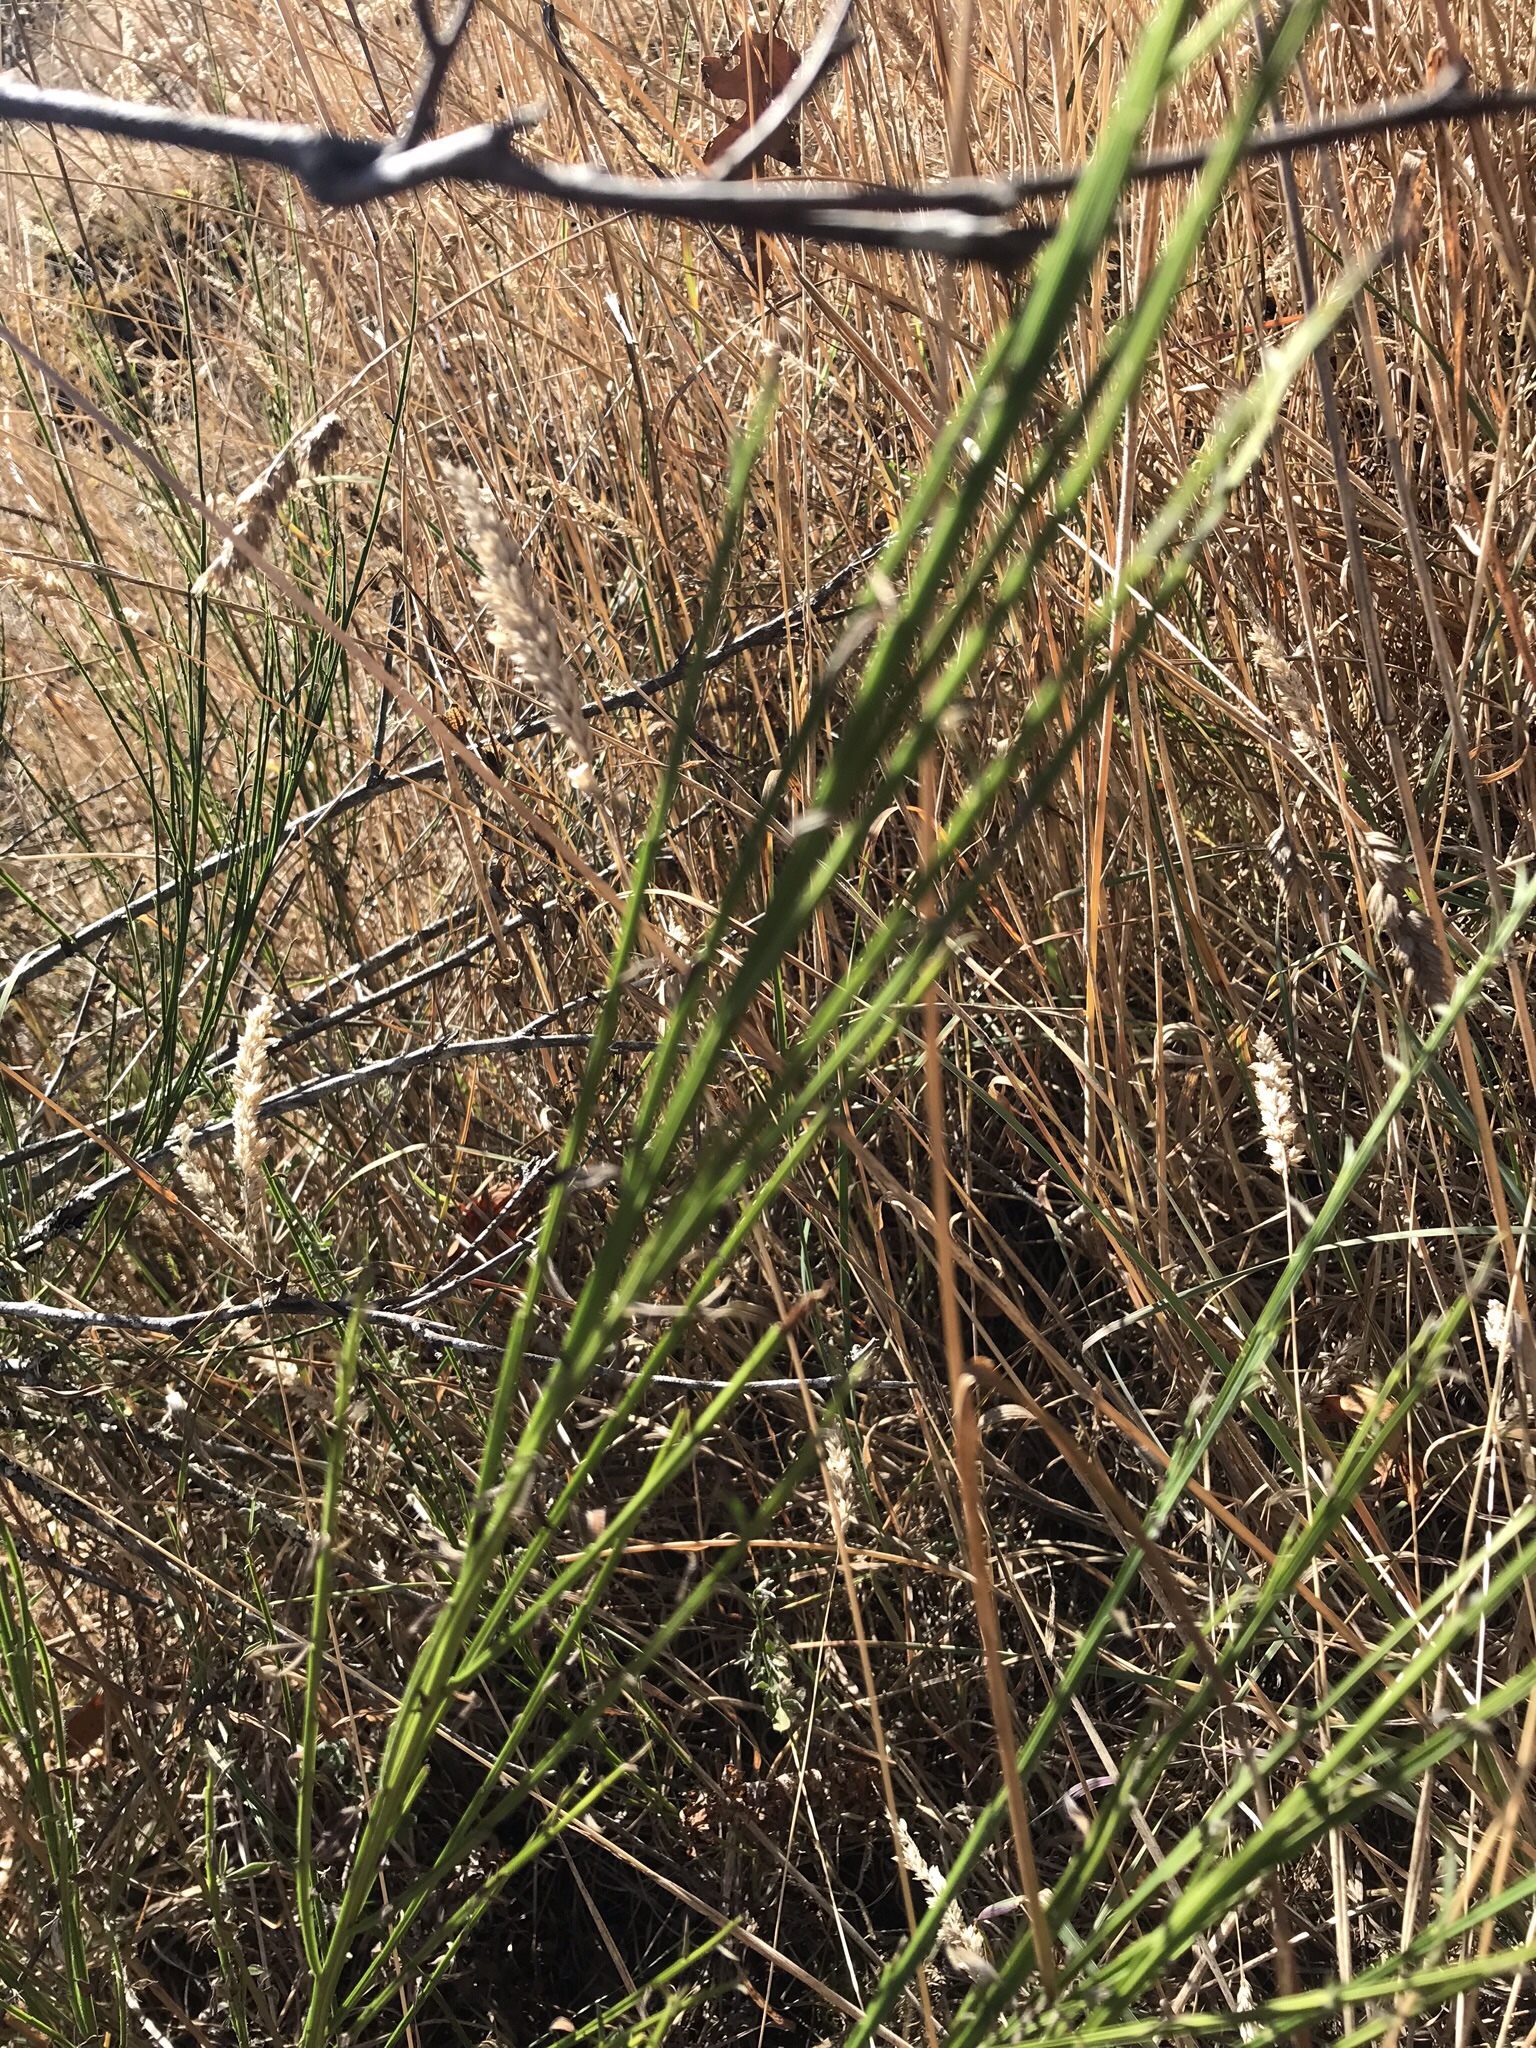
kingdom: Plantae
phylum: Tracheophyta
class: Magnoliopsida
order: Fabales
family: Fabaceae
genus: Cytisus
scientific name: Cytisus scoparius
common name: Scotch broom
